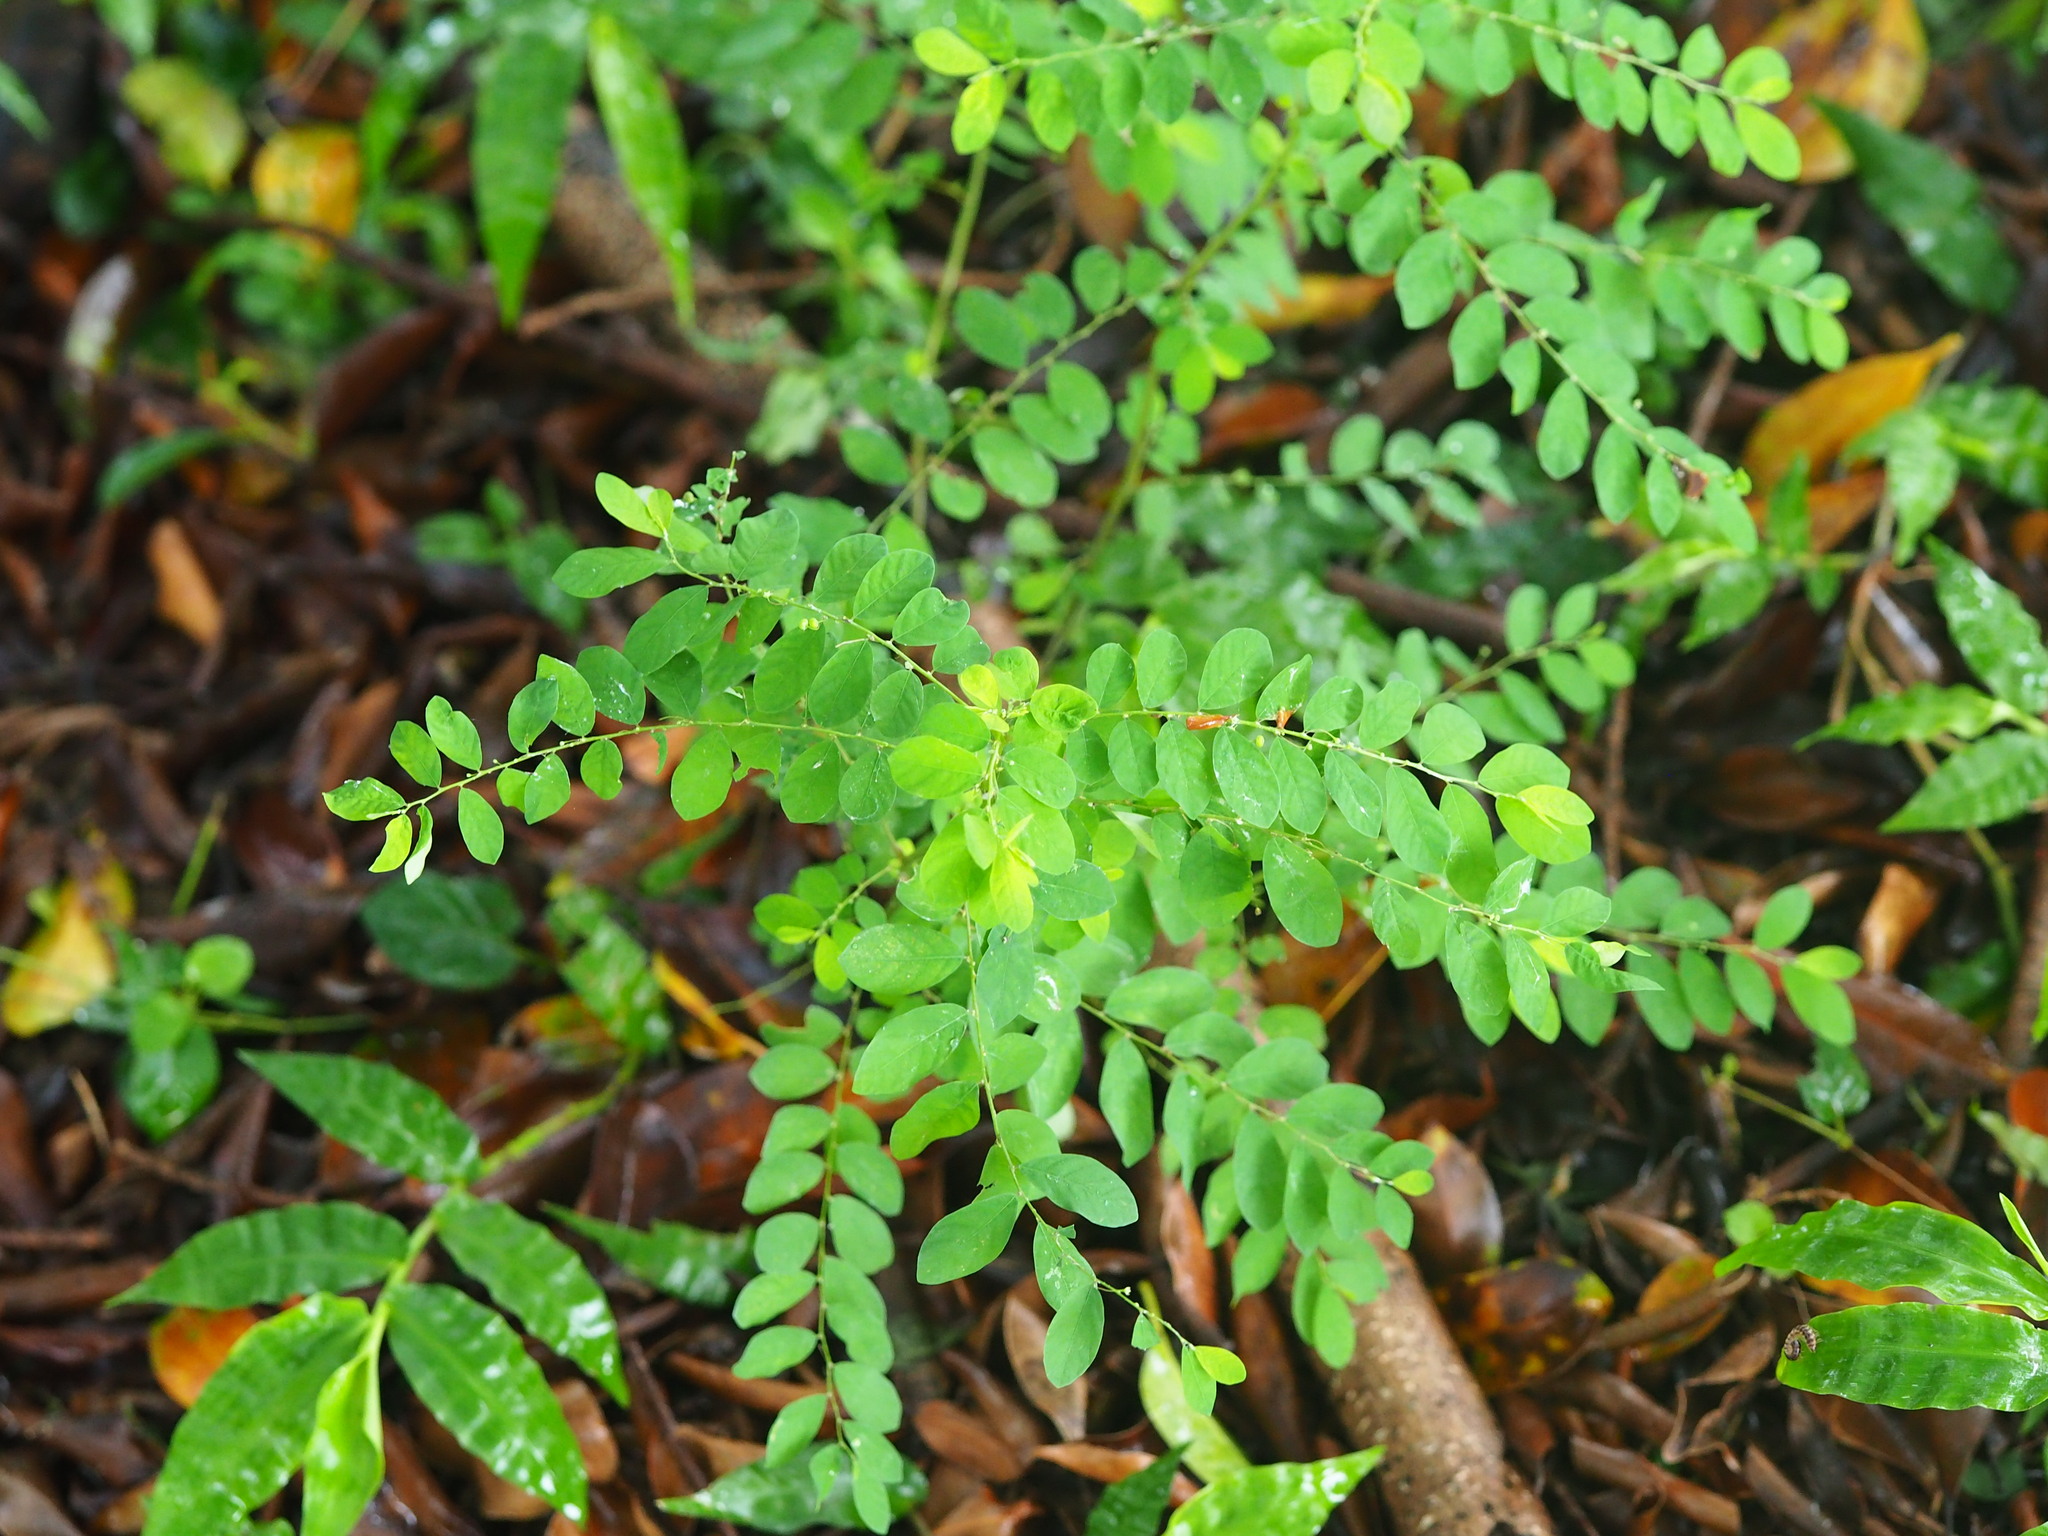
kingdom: Plantae
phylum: Tracheophyta
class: Magnoliopsida
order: Malpighiales
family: Phyllanthaceae
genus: Phyllanthus
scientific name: Phyllanthus tenellus
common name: Mascarene island leaf-flower
